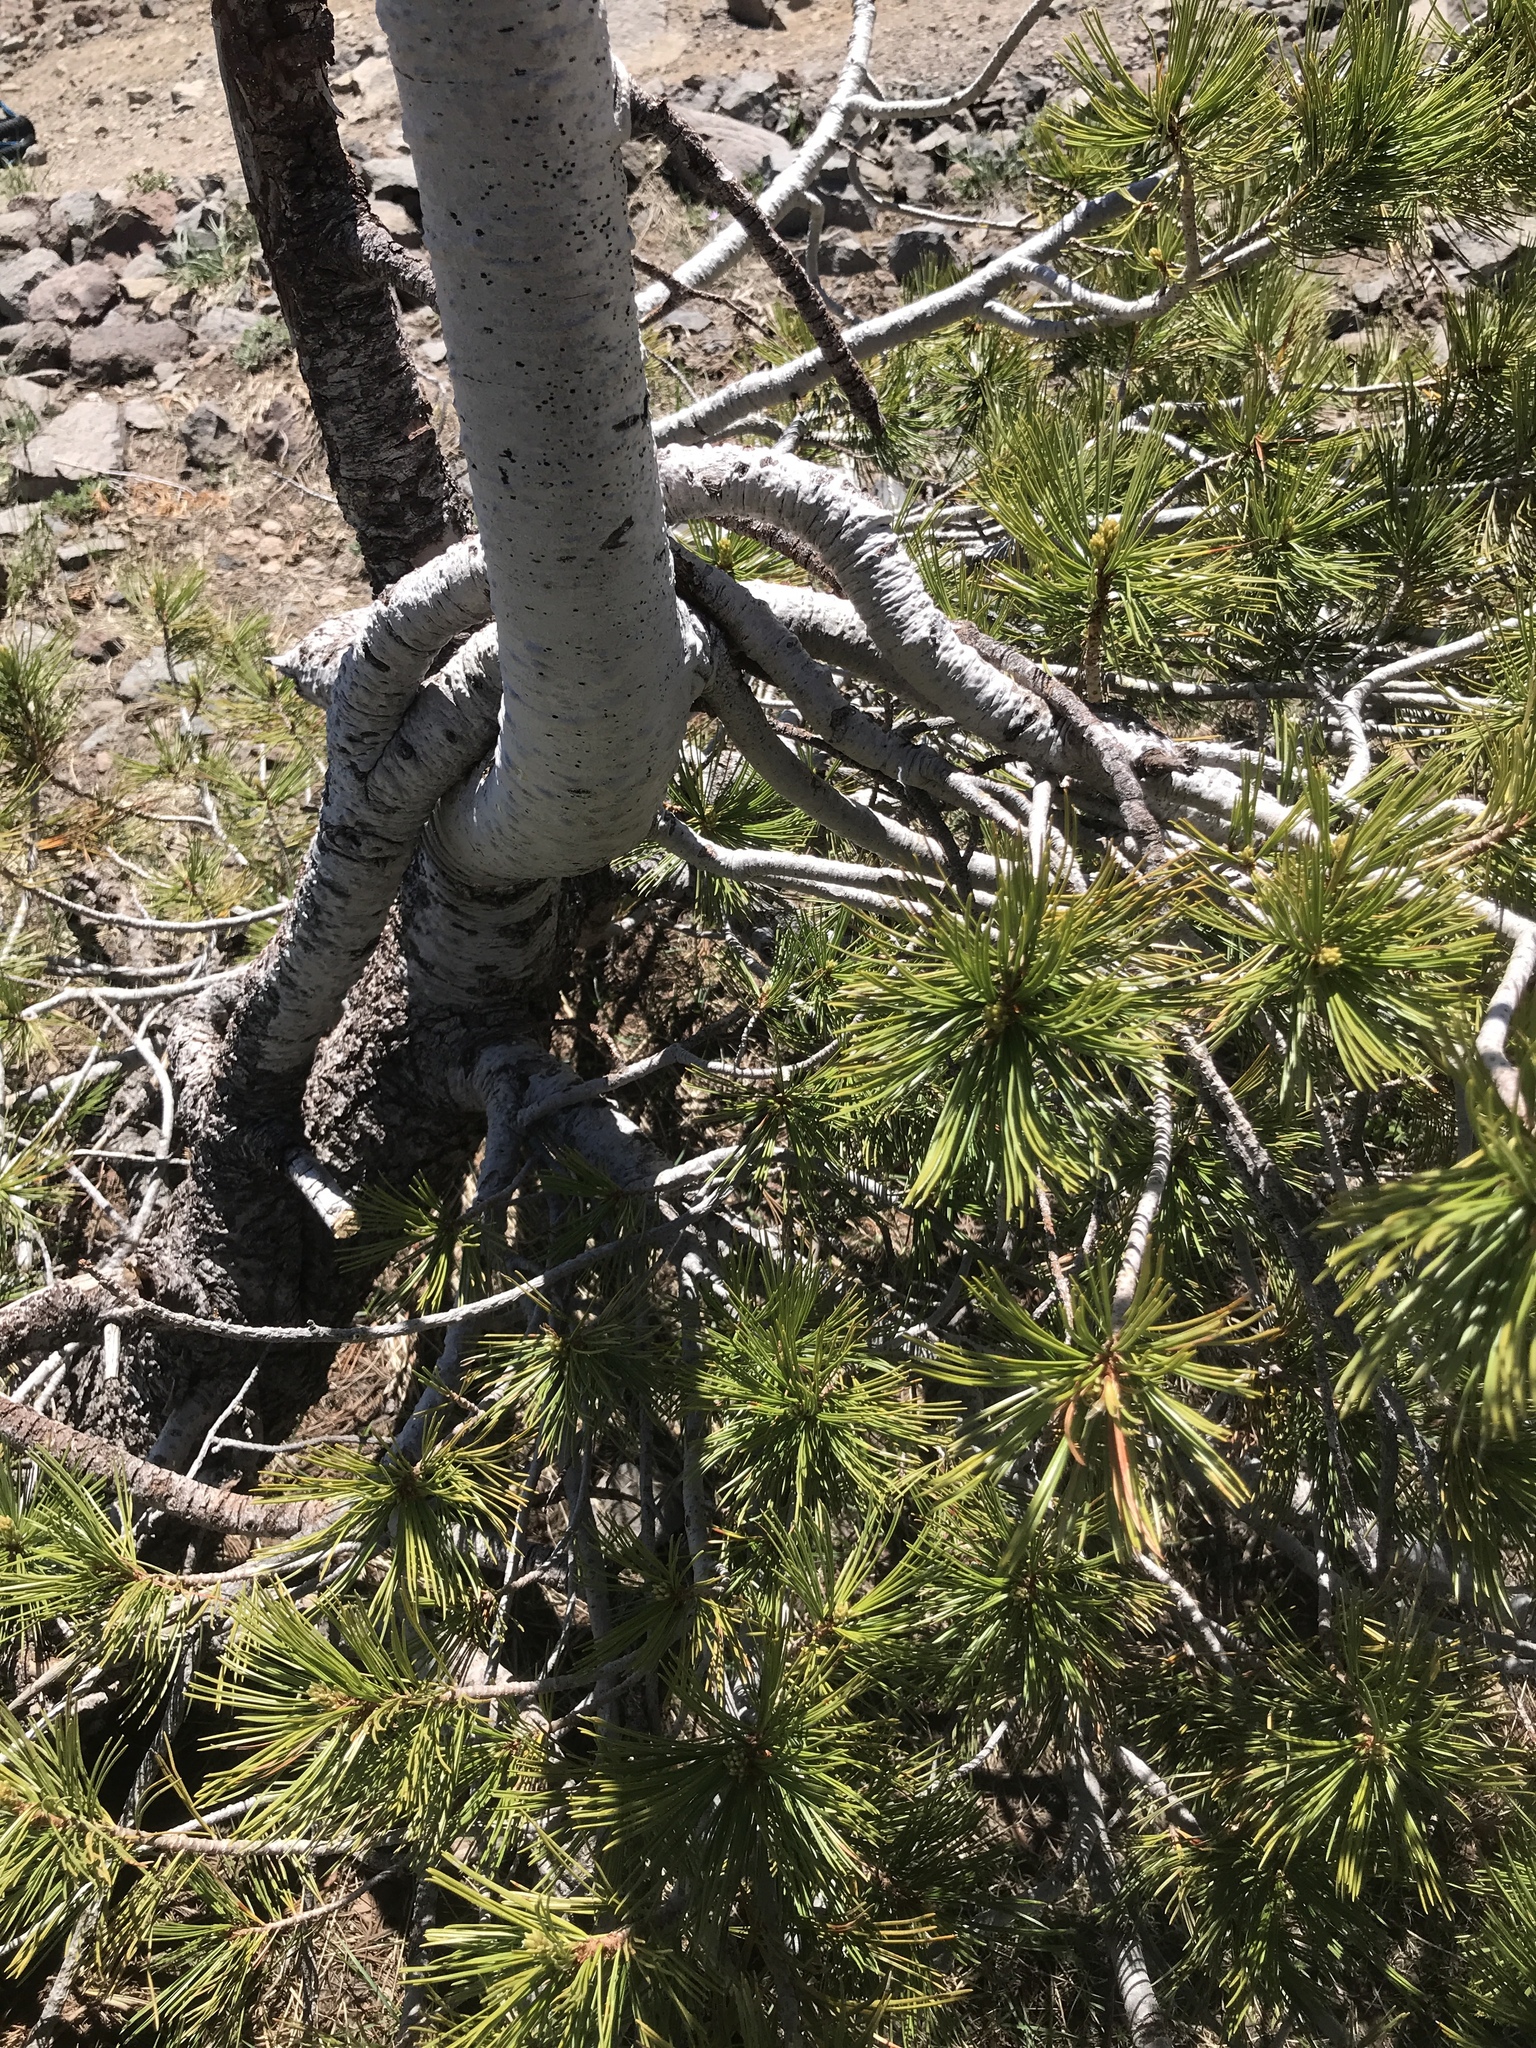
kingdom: Plantae
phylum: Tracheophyta
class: Pinopsida
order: Pinales
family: Pinaceae
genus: Pinus
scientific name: Pinus albicaulis
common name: Whitebark pine
